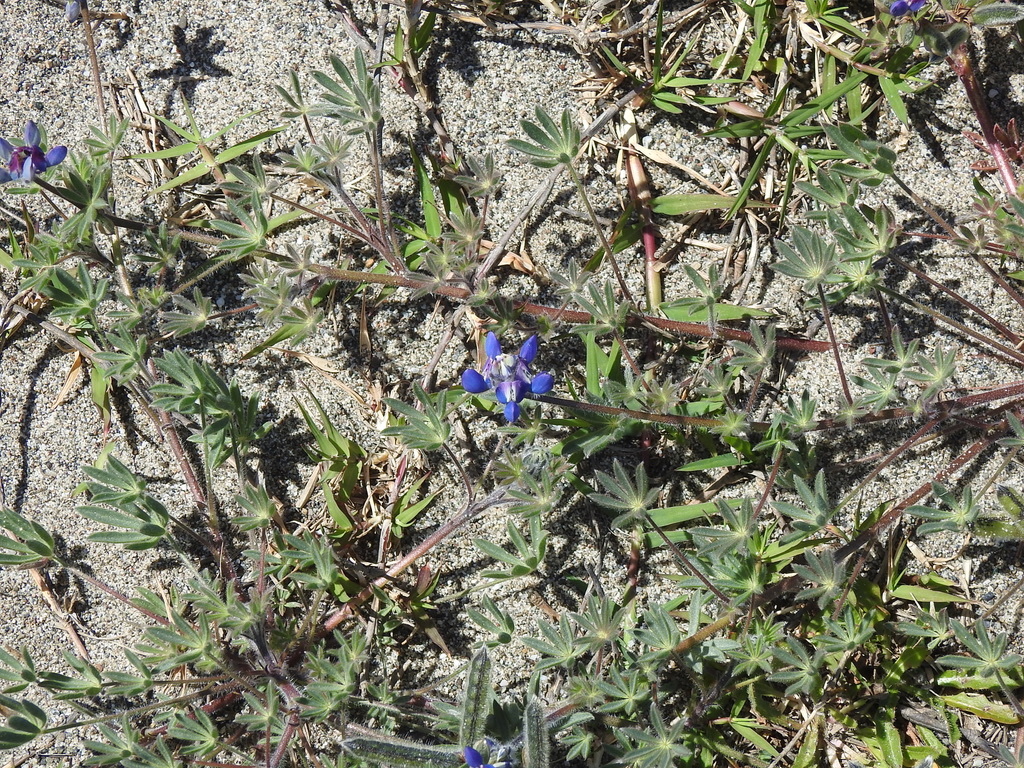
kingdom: Plantae
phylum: Tracheophyta
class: Magnoliopsida
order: Fabales
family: Fabaceae
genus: Lupinus
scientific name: Lupinus bicolor
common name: Miniature lupine
